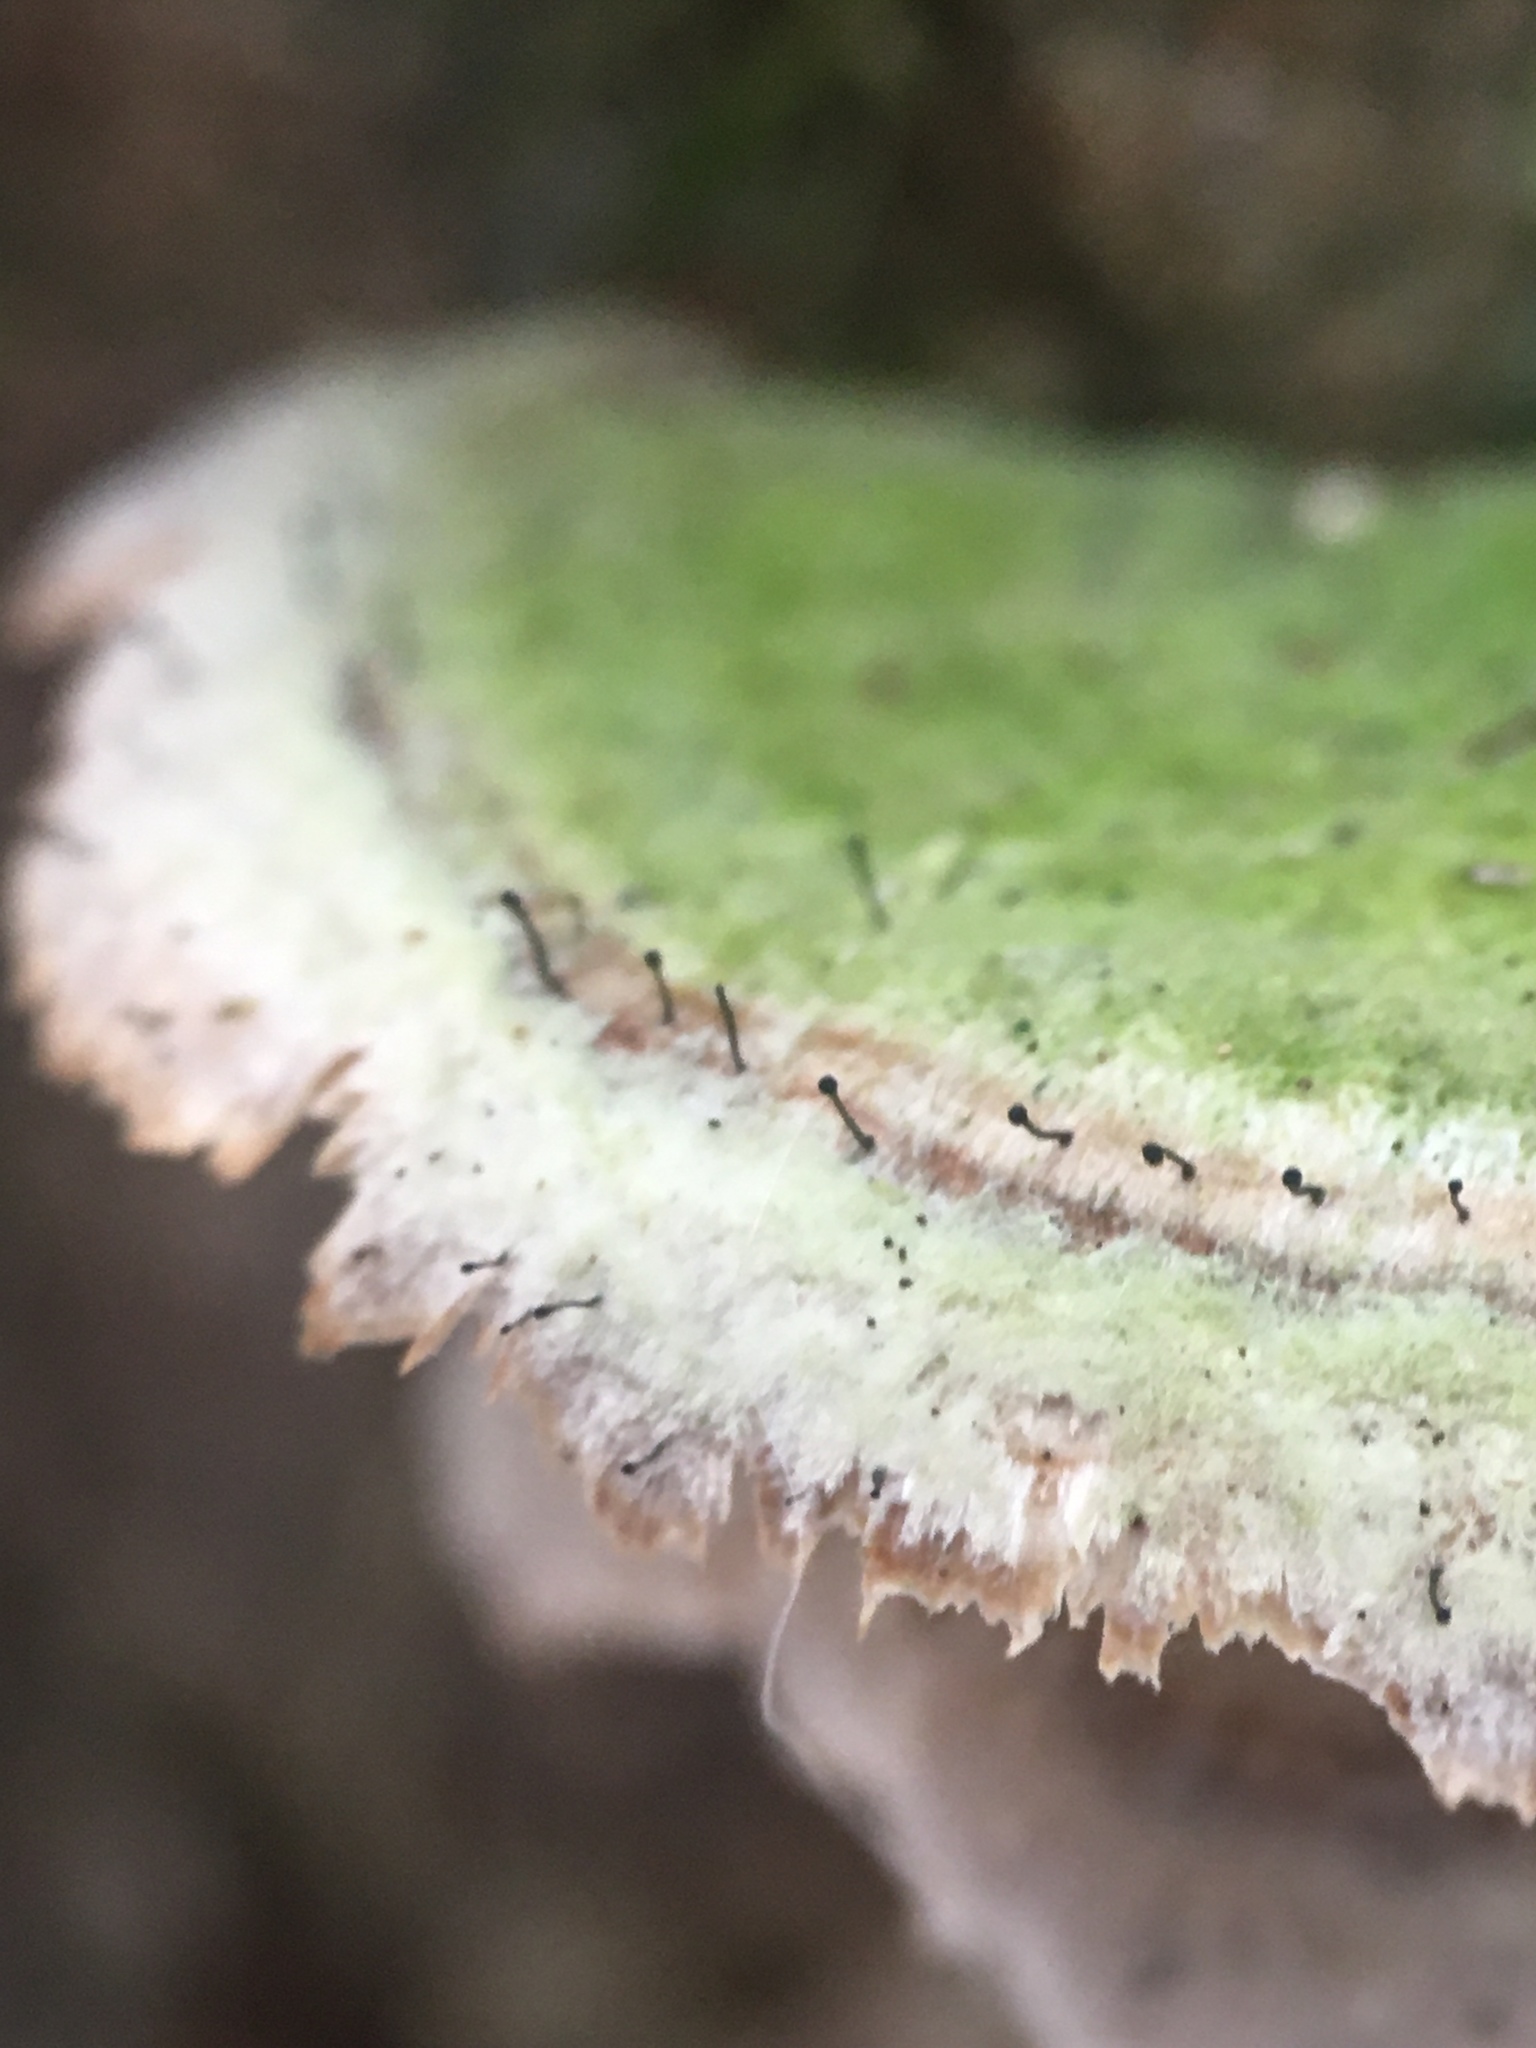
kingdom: Fungi
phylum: Basidiomycota
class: Agaricomycetes
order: Hymenochaetales
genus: Trichaptum
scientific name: Trichaptum biforme
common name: Violet-toothed polypore
